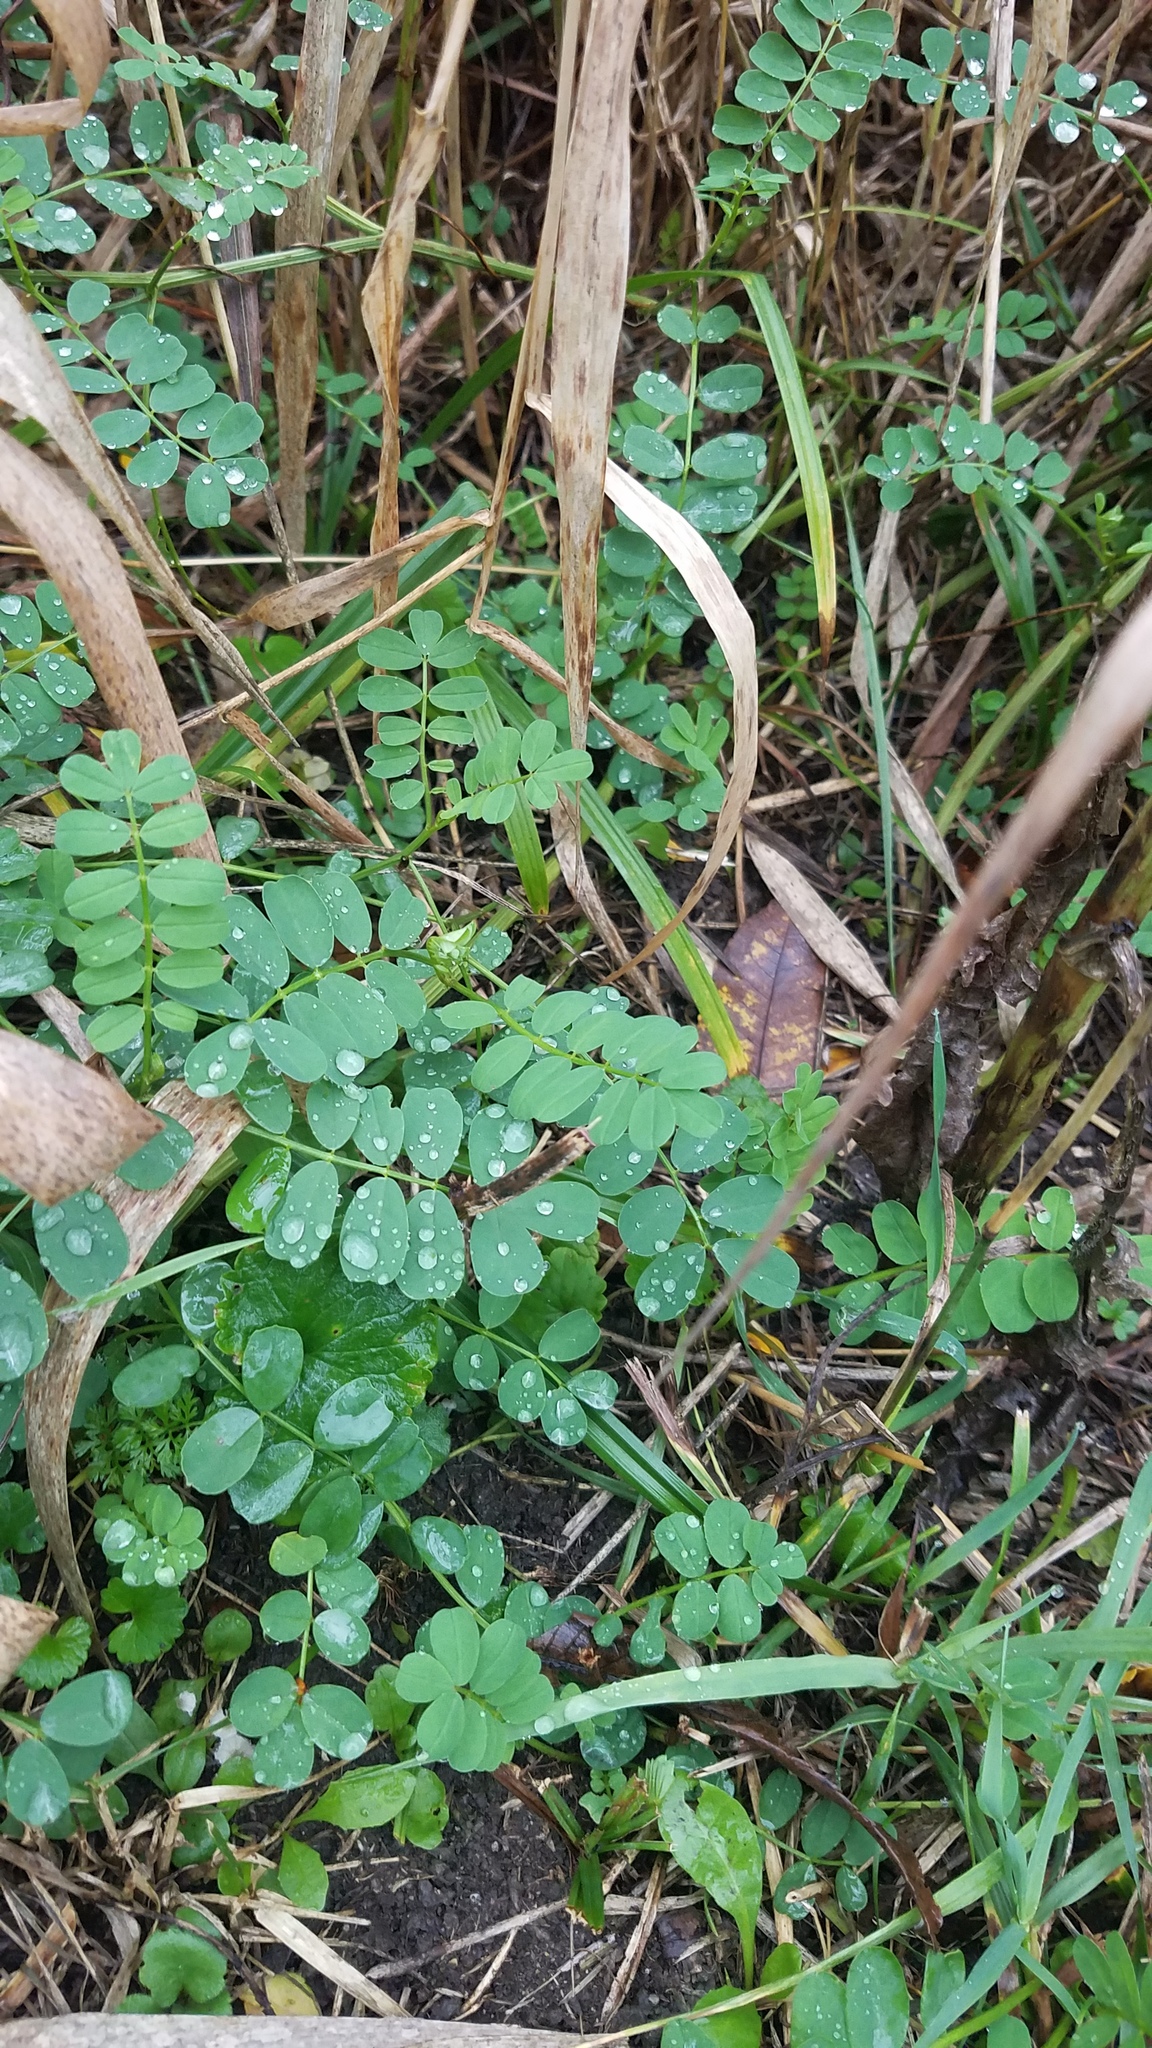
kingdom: Plantae
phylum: Tracheophyta
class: Magnoliopsida
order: Fabales
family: Fabaceae
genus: Coronilla
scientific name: Coronilla varia
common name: Crownvetch
